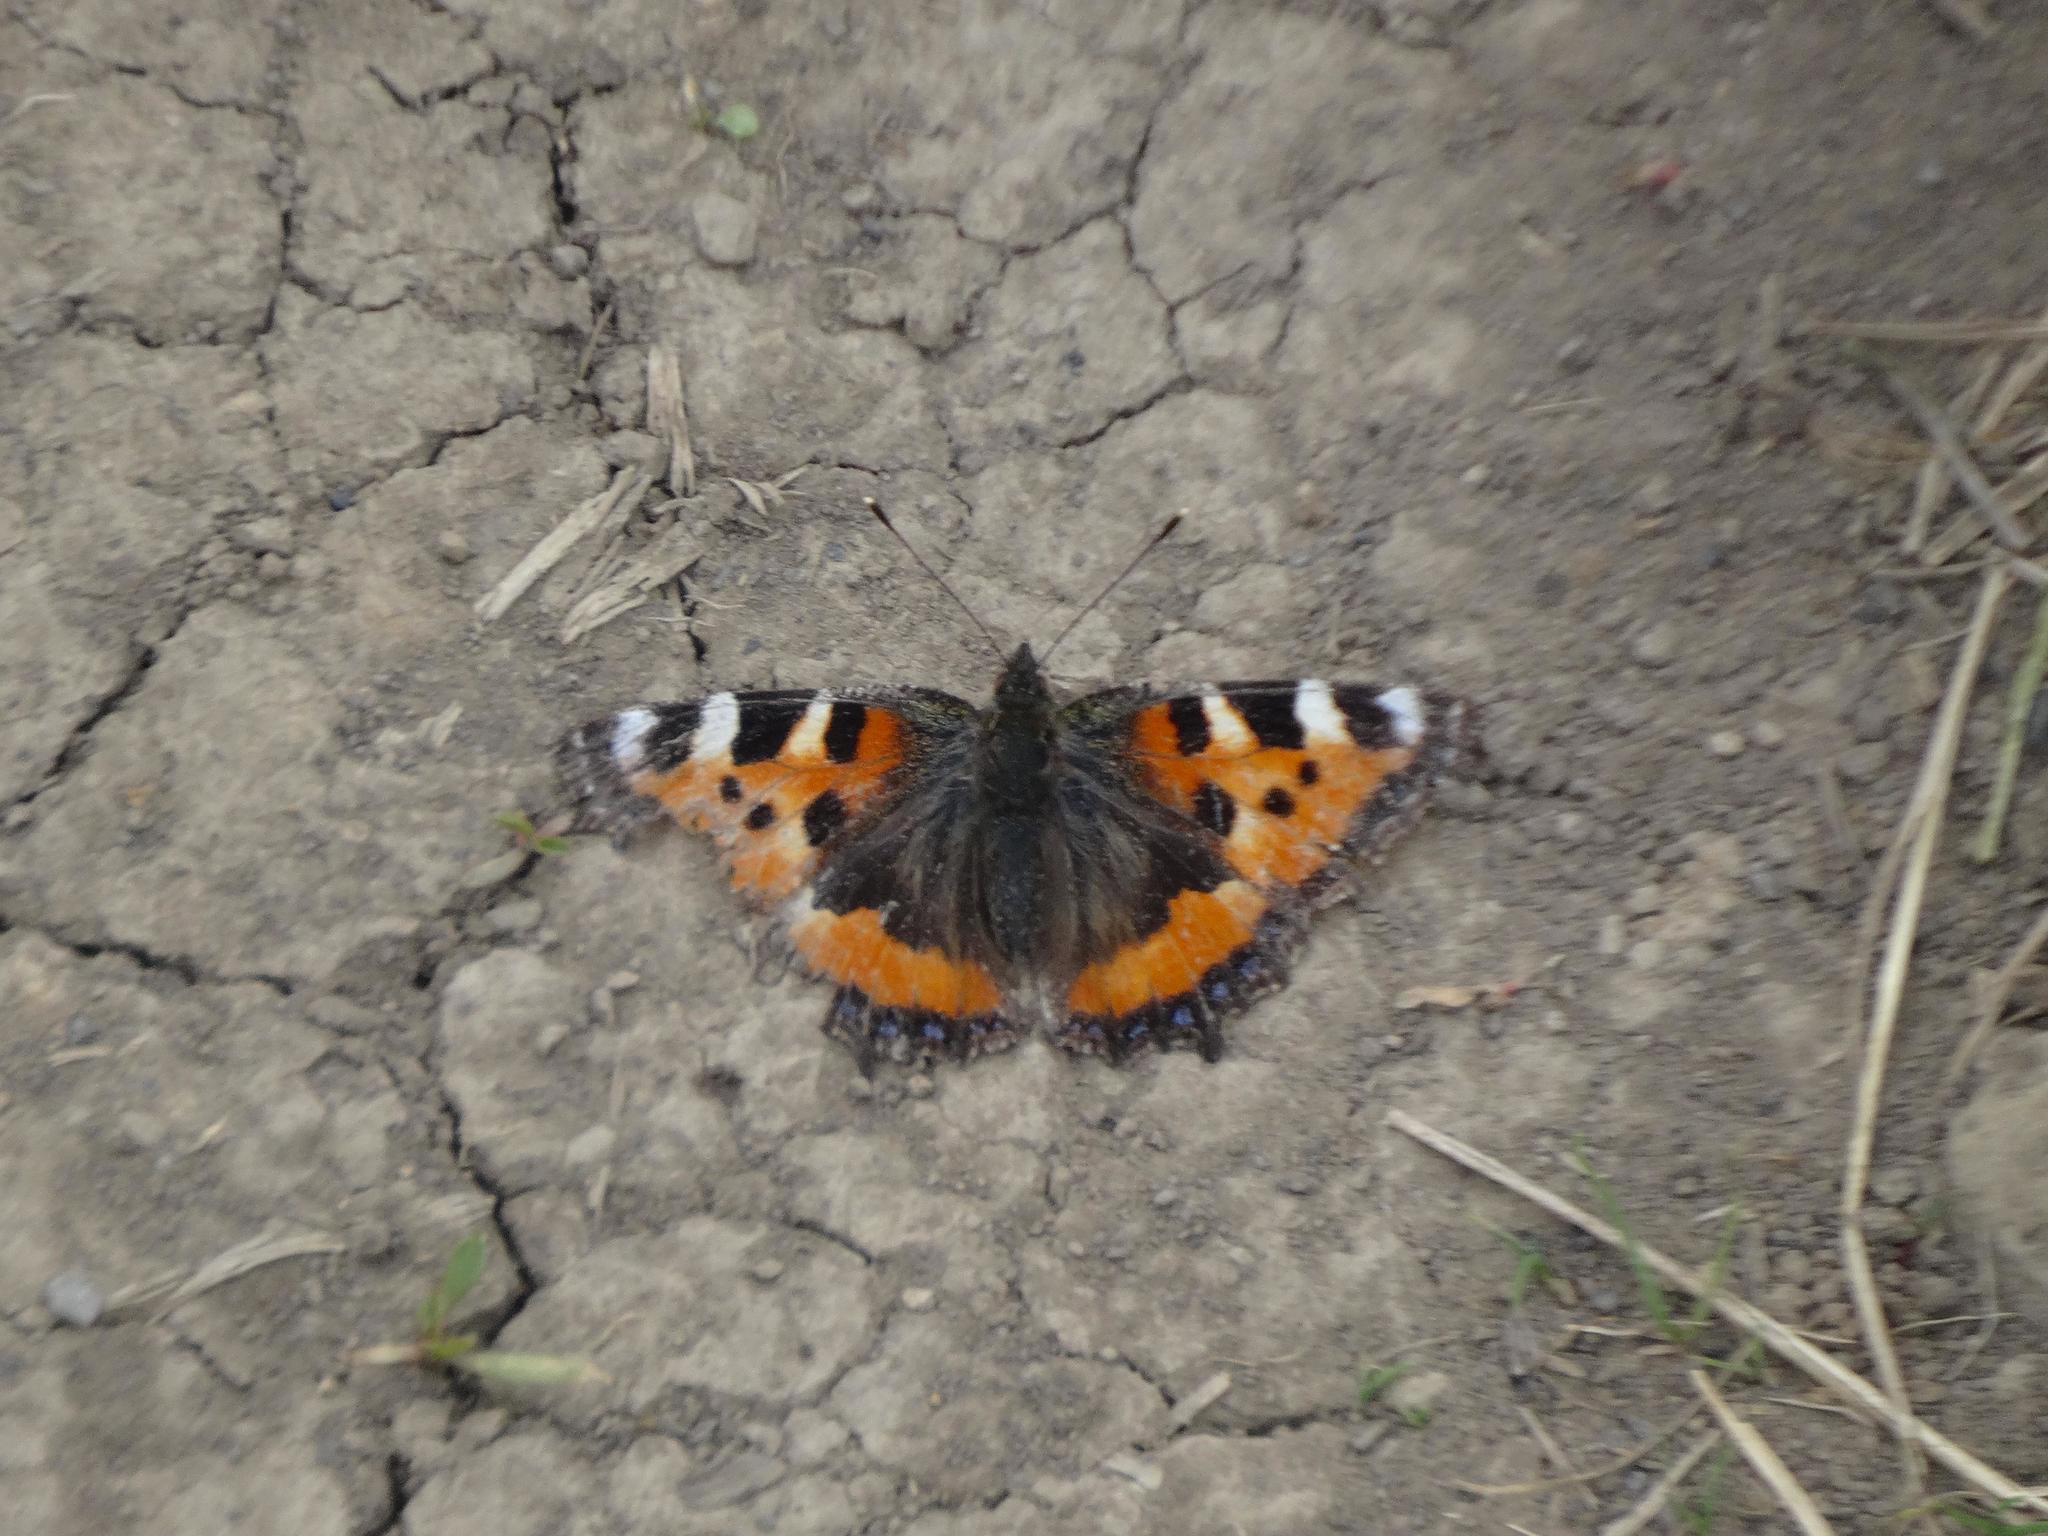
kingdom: Animalia
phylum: Arthropoda
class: Insecta
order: Lepidoptera
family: Nymphalidae
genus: Aglais
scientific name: Aglais urticae
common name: Small tortoiseshell
